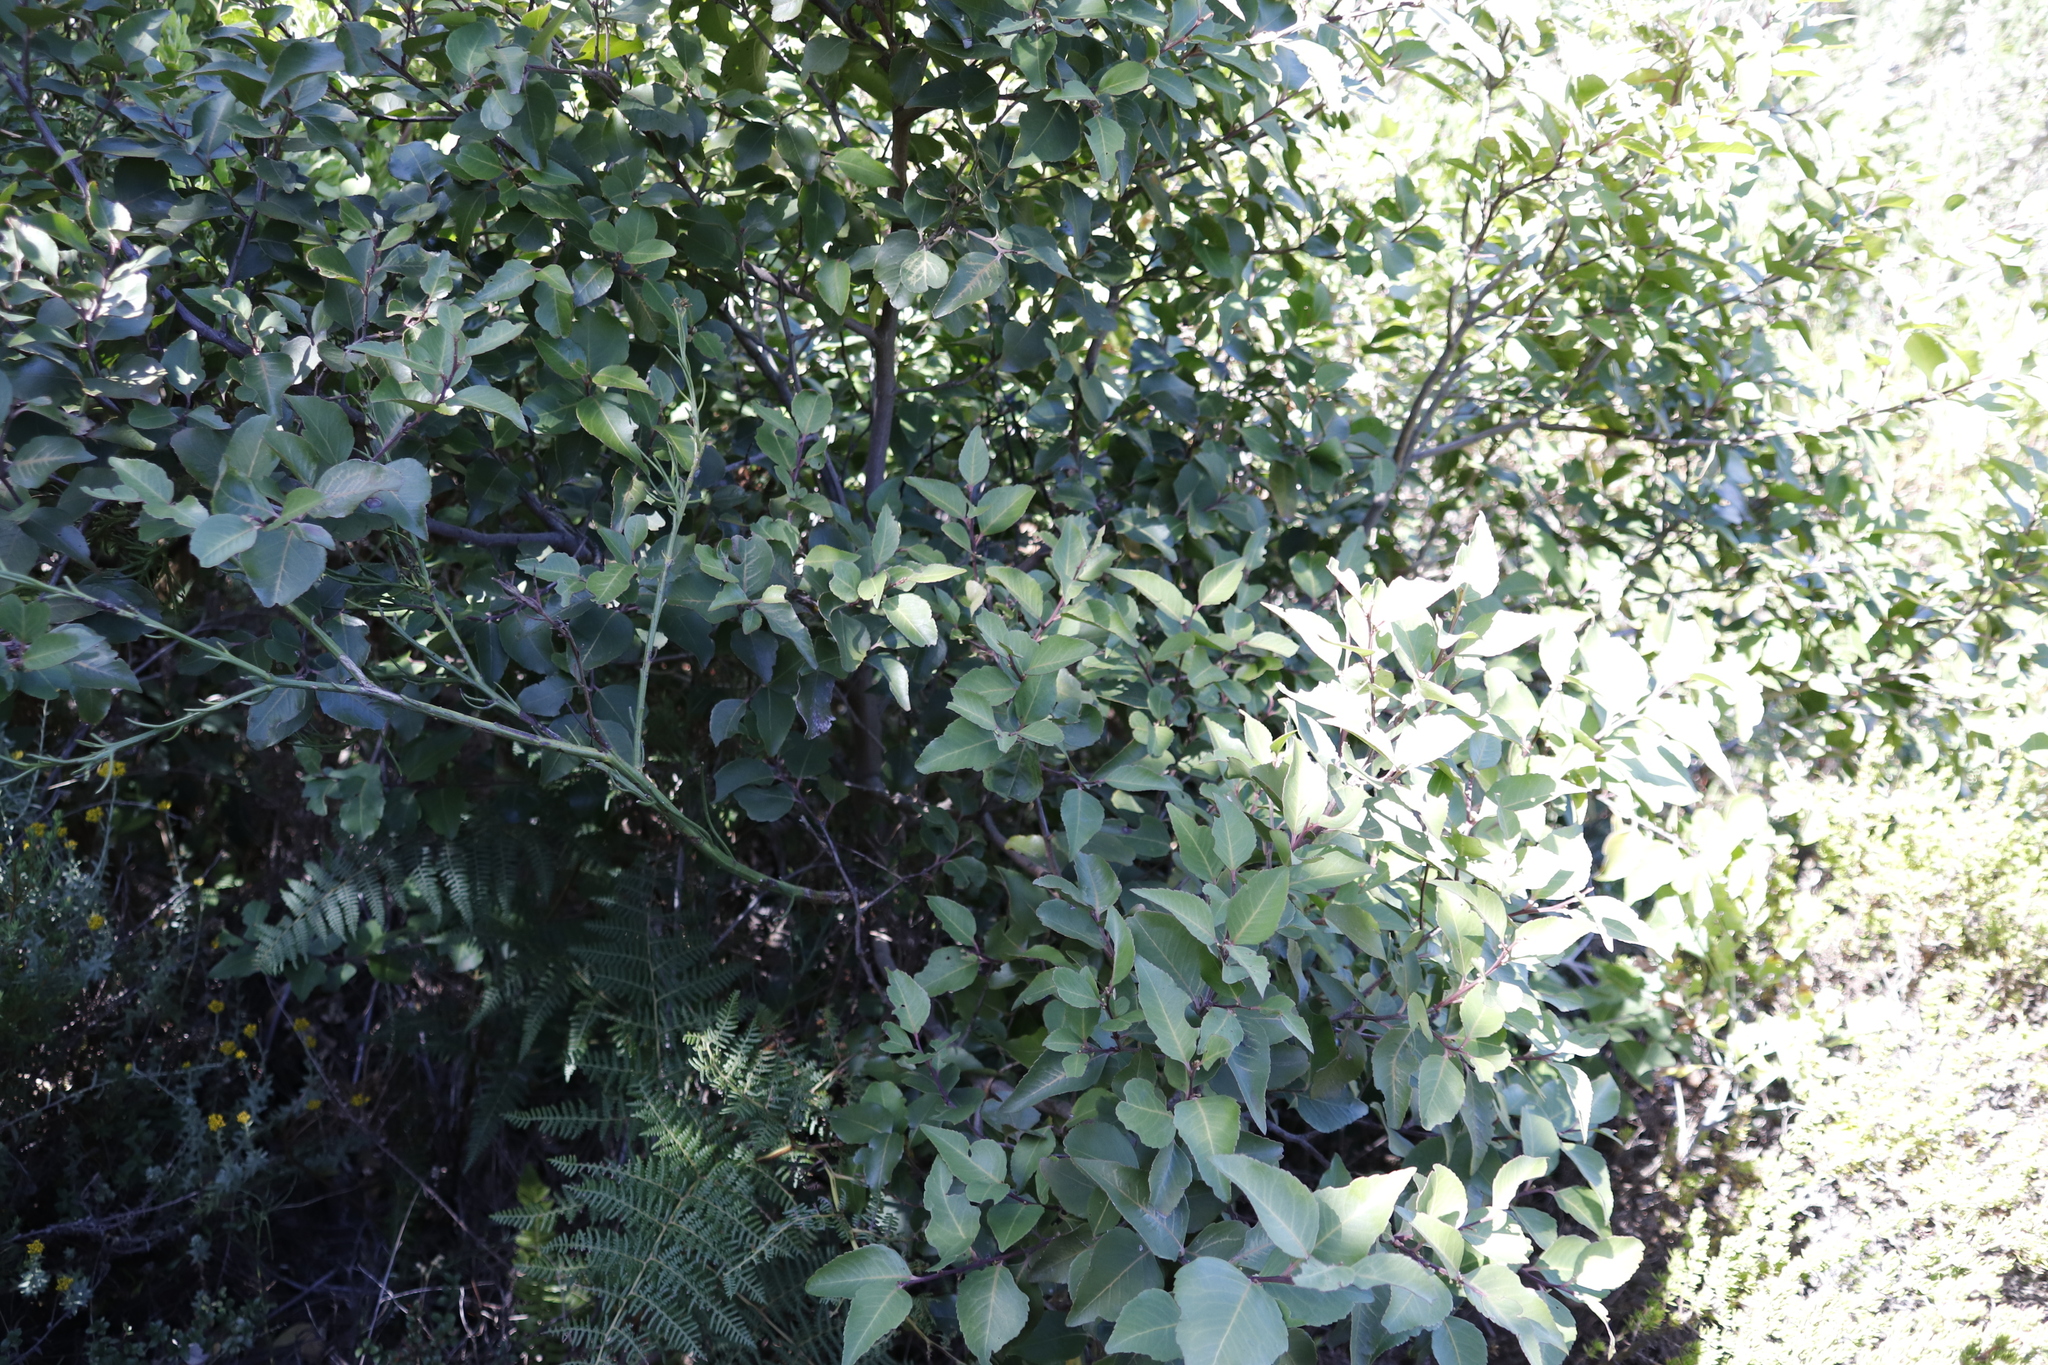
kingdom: Plantae
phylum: Tracheophyta
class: Magnoliopsida
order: Celastrales
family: Celastraceae
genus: Gymnosporia
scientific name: Gymnosporia acuminata
